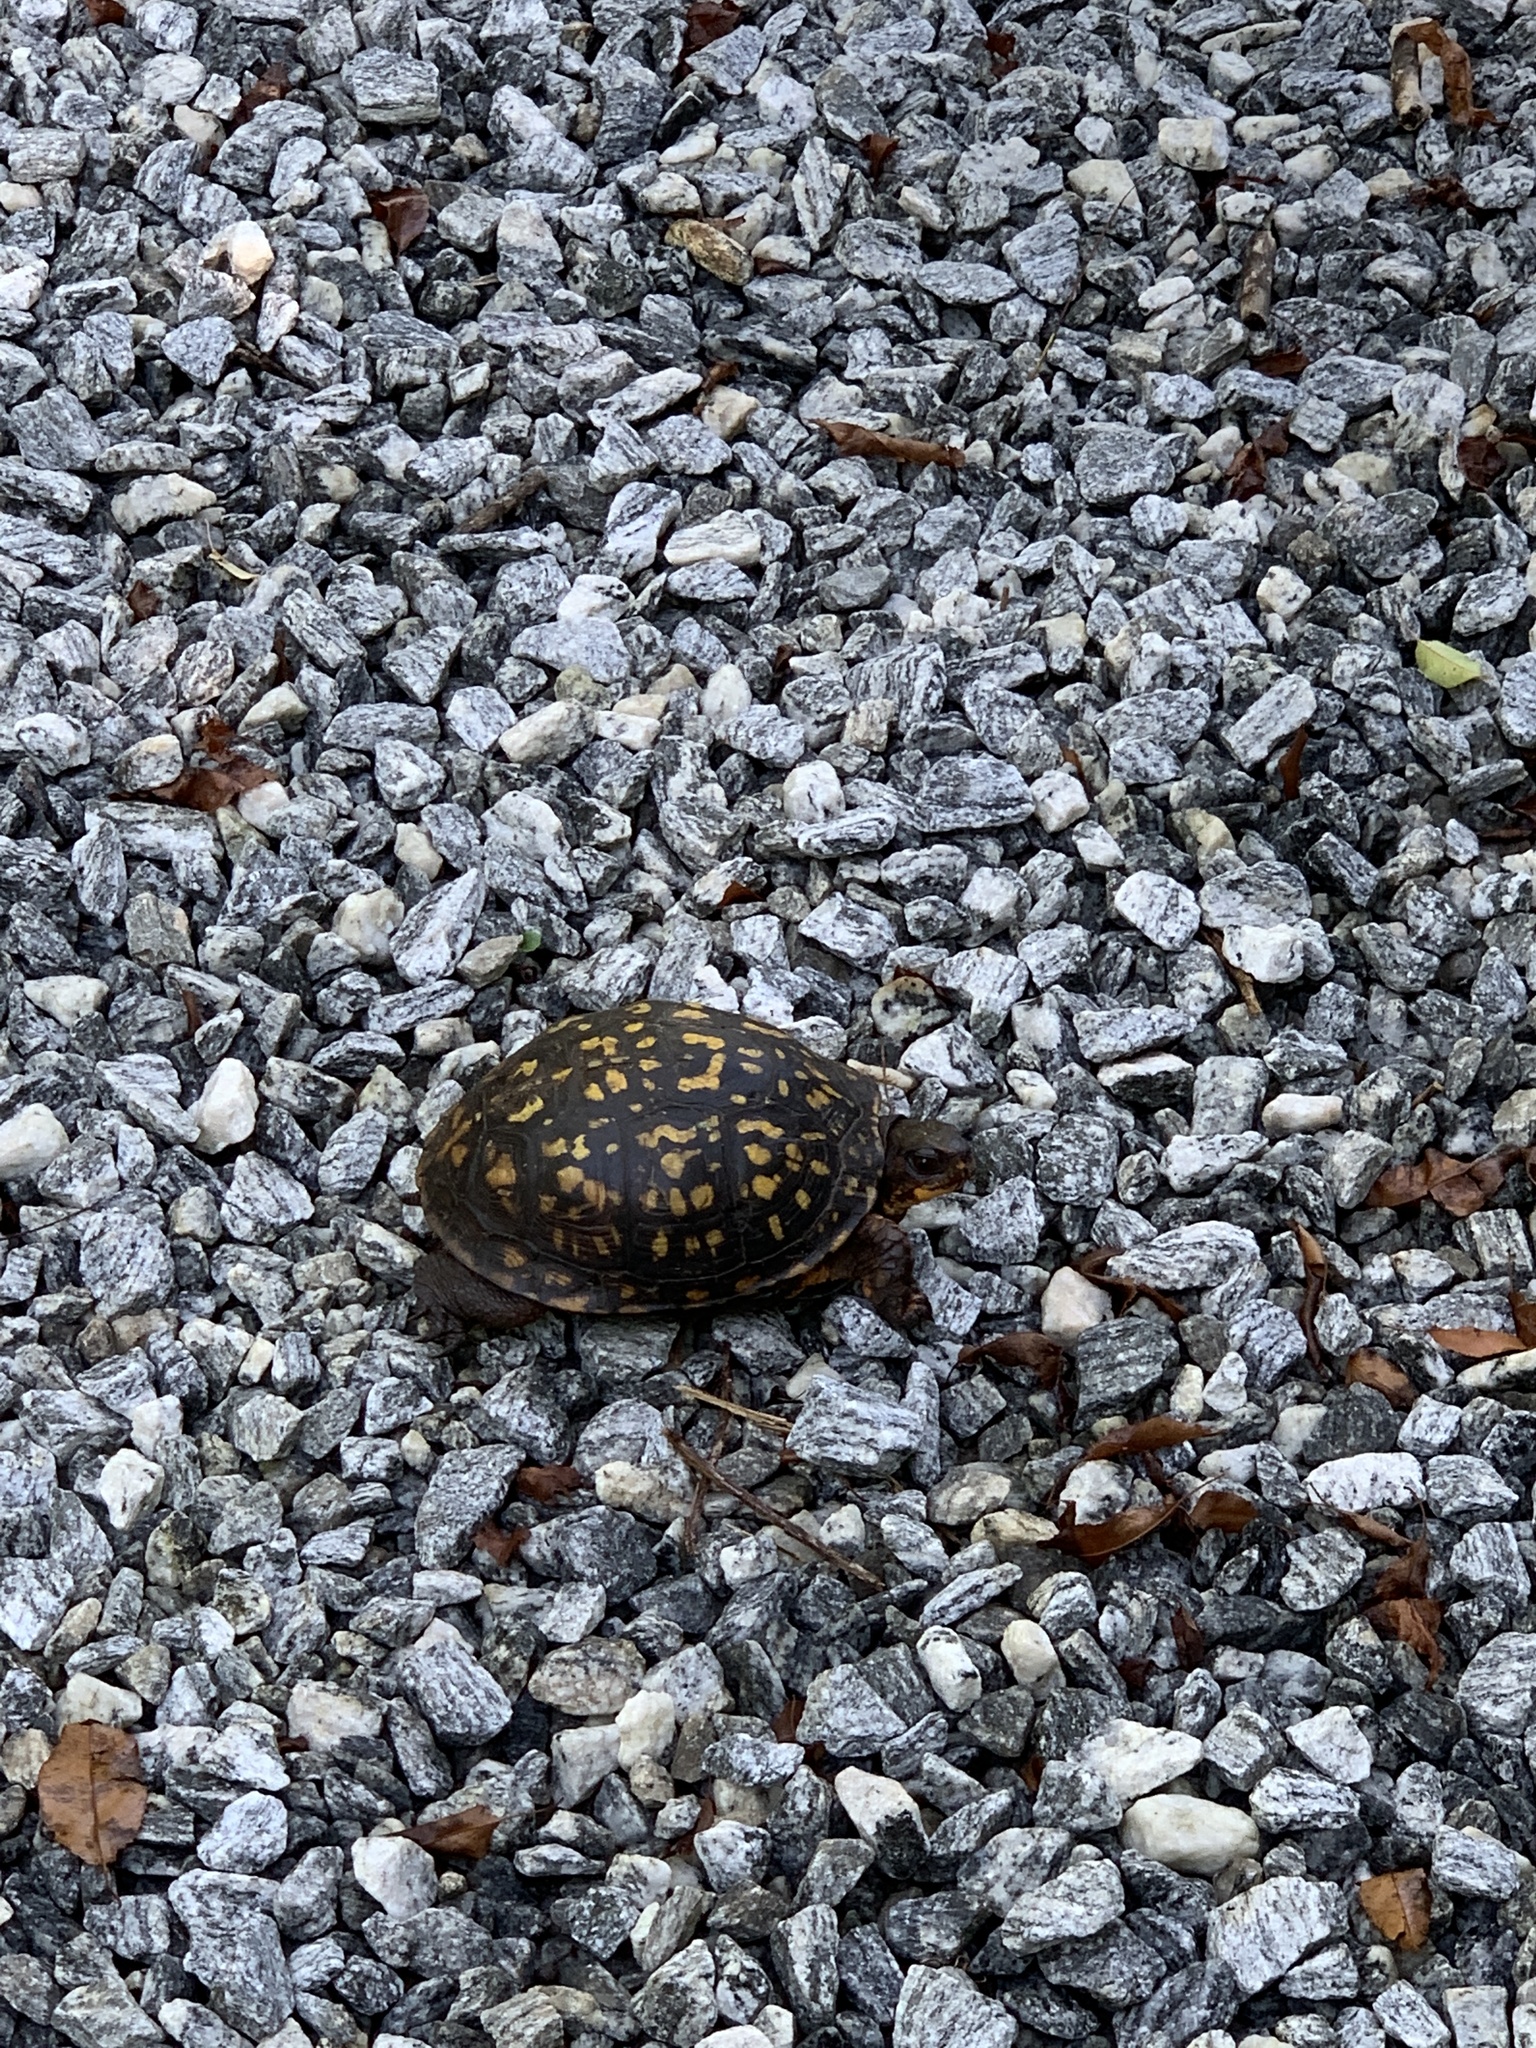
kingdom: Animalia
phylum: Chordata
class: Testudines
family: Emydidae
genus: Terrapene
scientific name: Terrapene carolina
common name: Common box turtle
